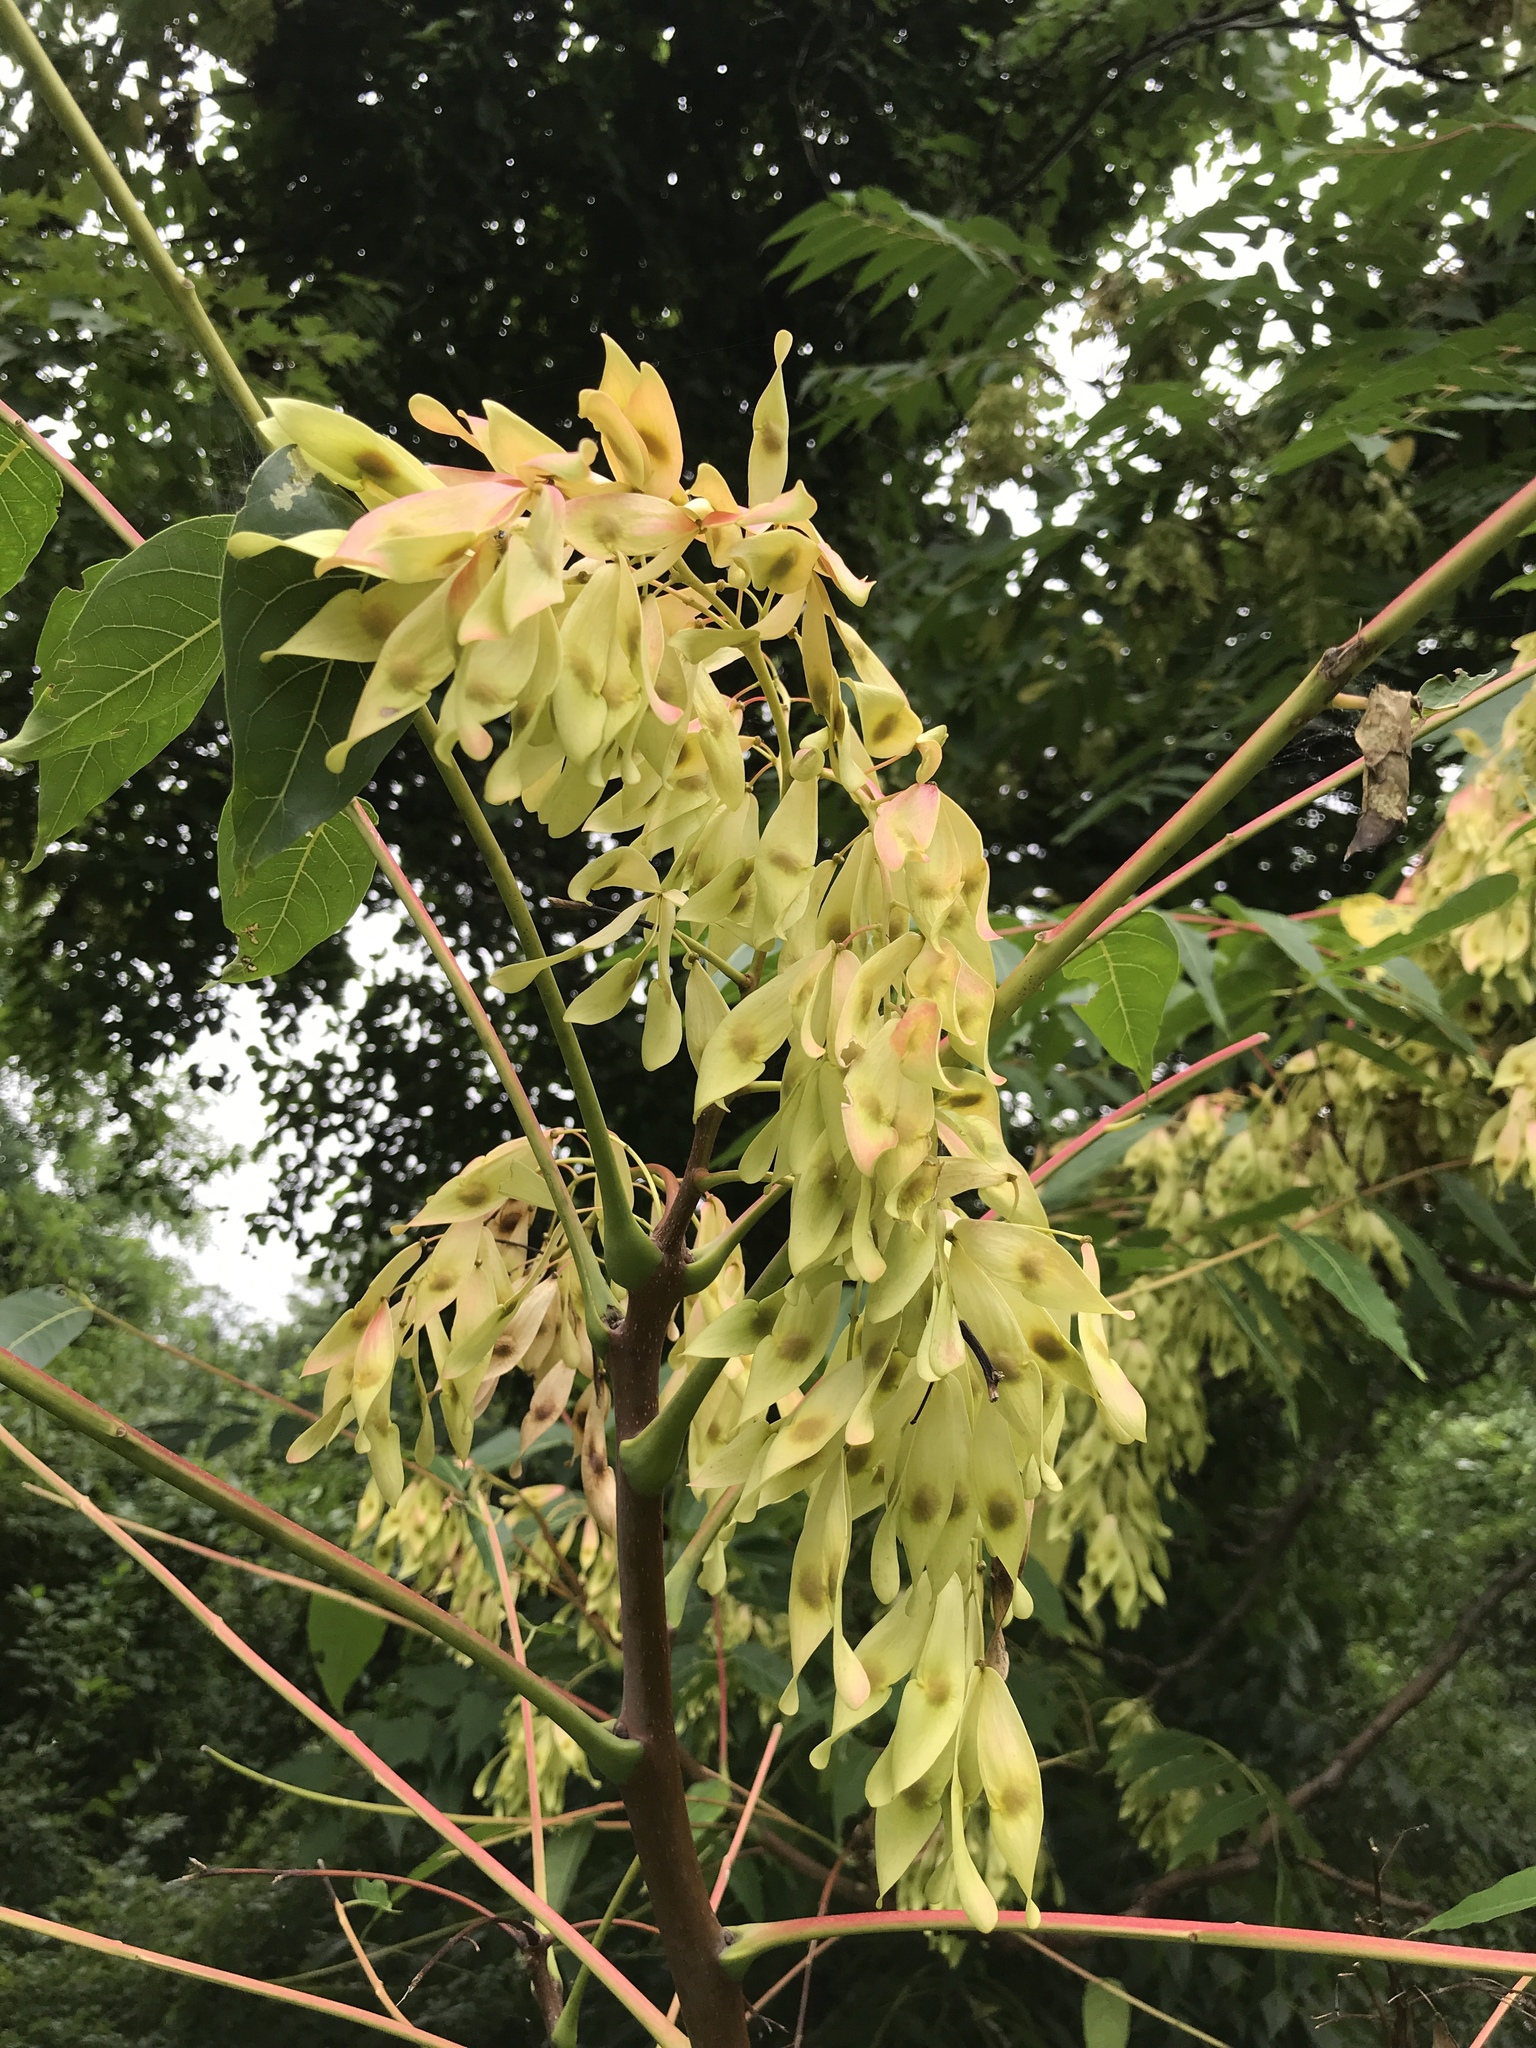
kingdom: Plantae
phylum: Tracheophyta
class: Magnoliopsida
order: Sapindales
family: Simaroubaceae
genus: Ailanthus
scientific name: Ailanthus altissima
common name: Tree-of-heaven
